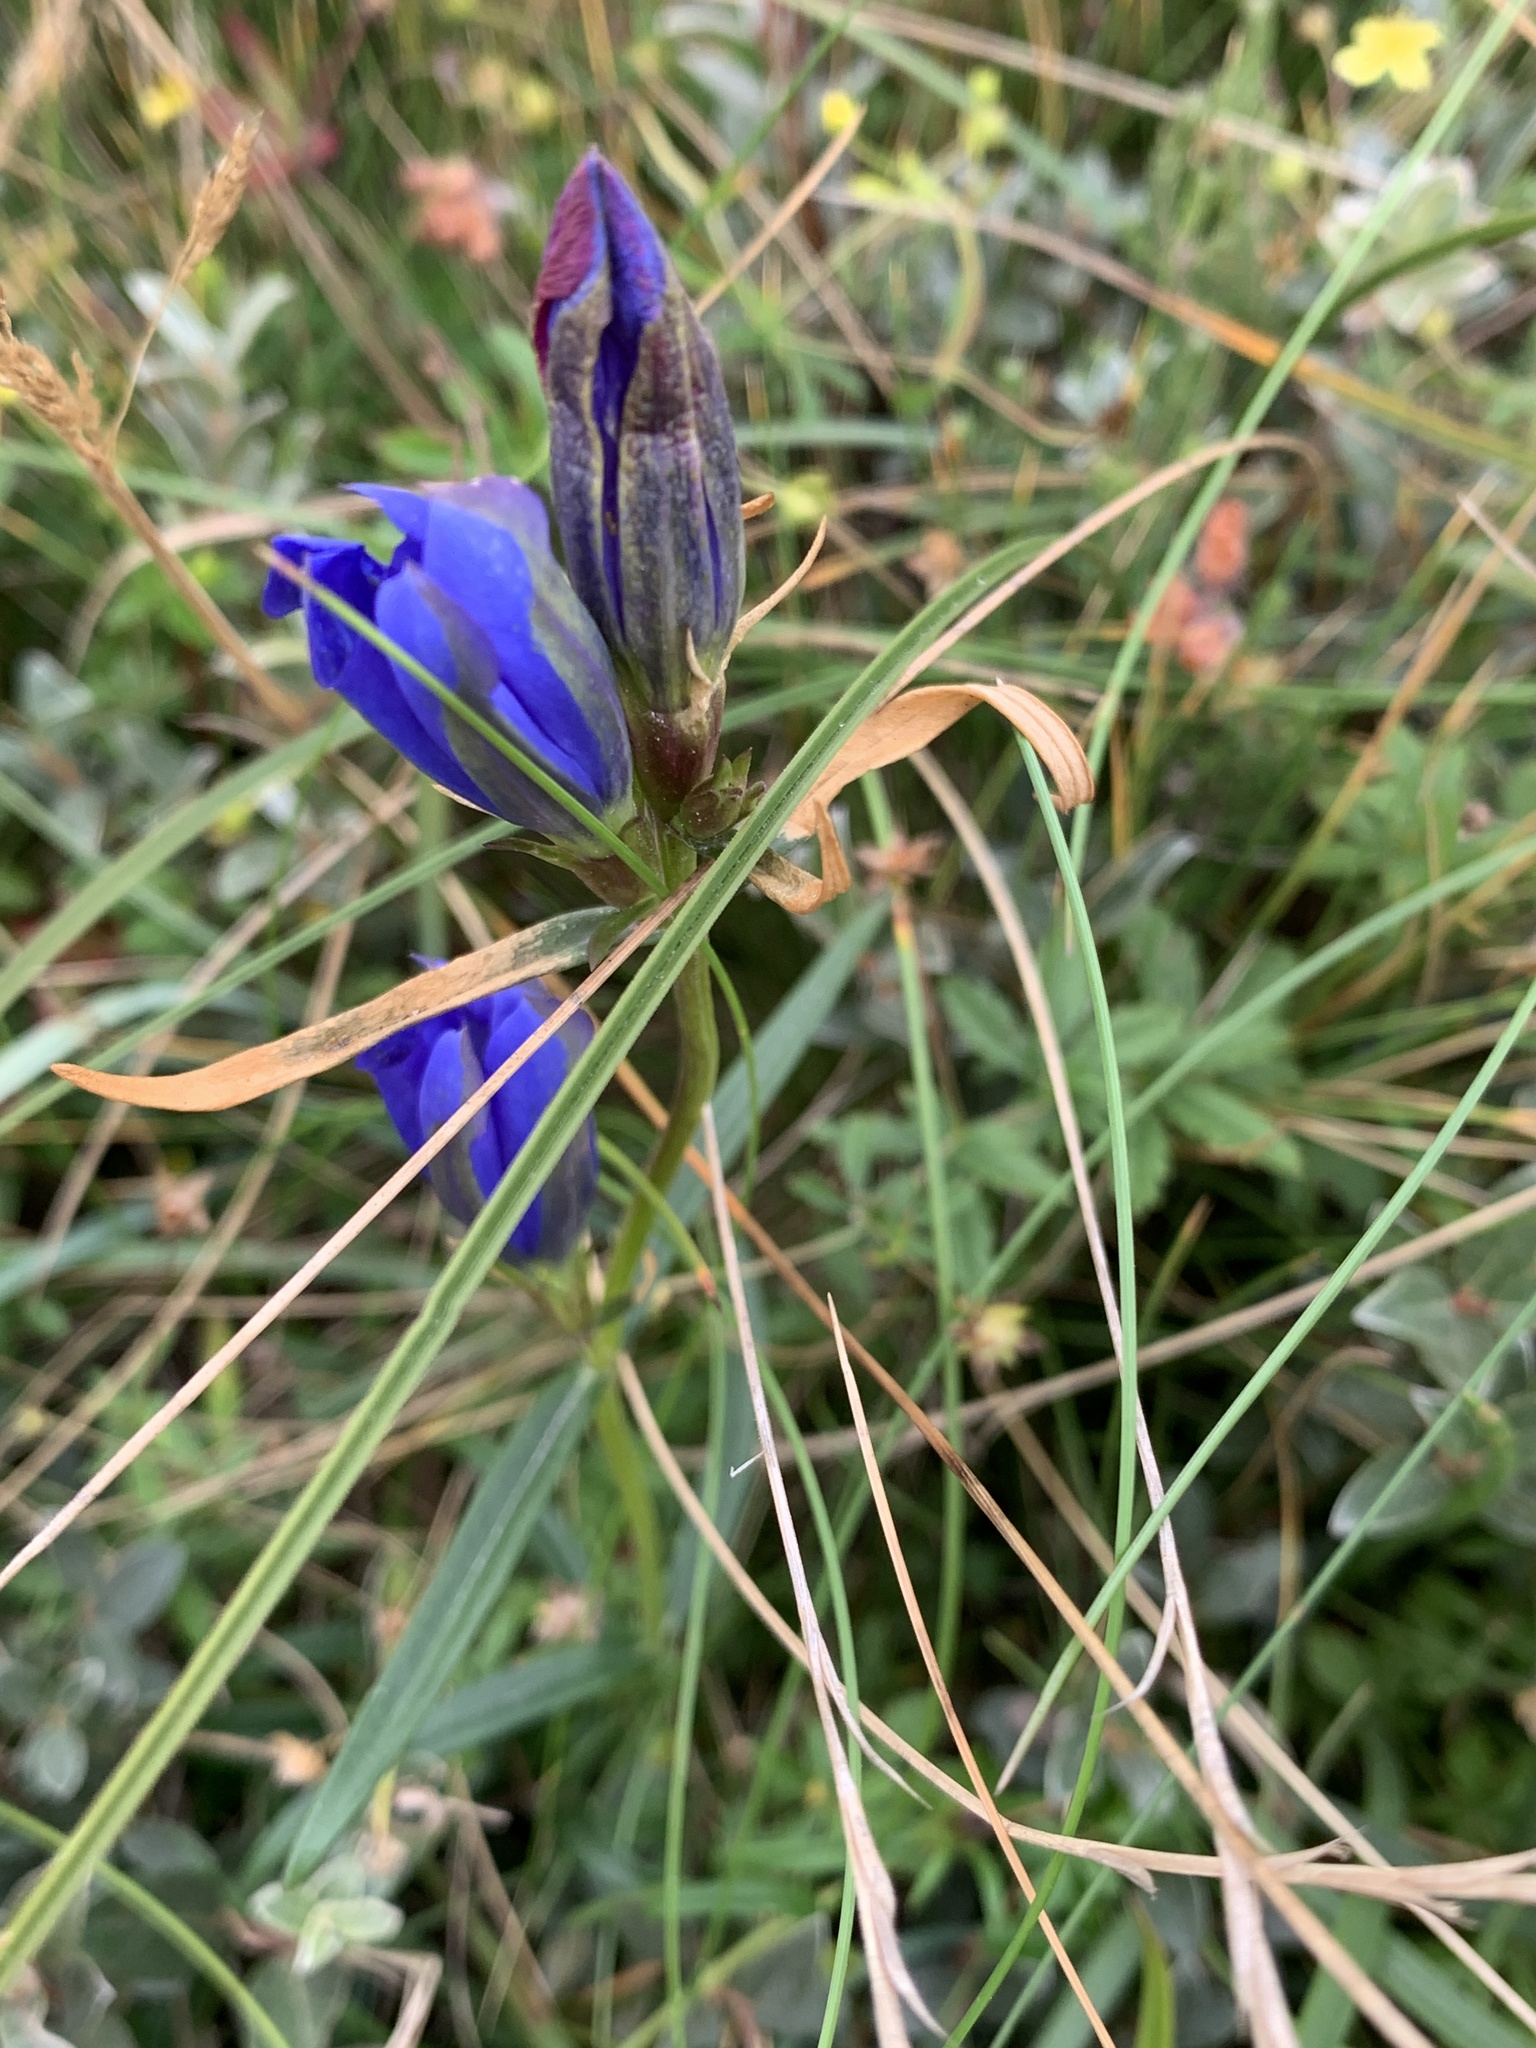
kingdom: Plantae
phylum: Tracheophyta
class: Magnoliopsida
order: Gentianales
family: Gentianaceae
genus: Gentiana
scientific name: Gentiana pneumonanthe
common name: Marsh gentian
